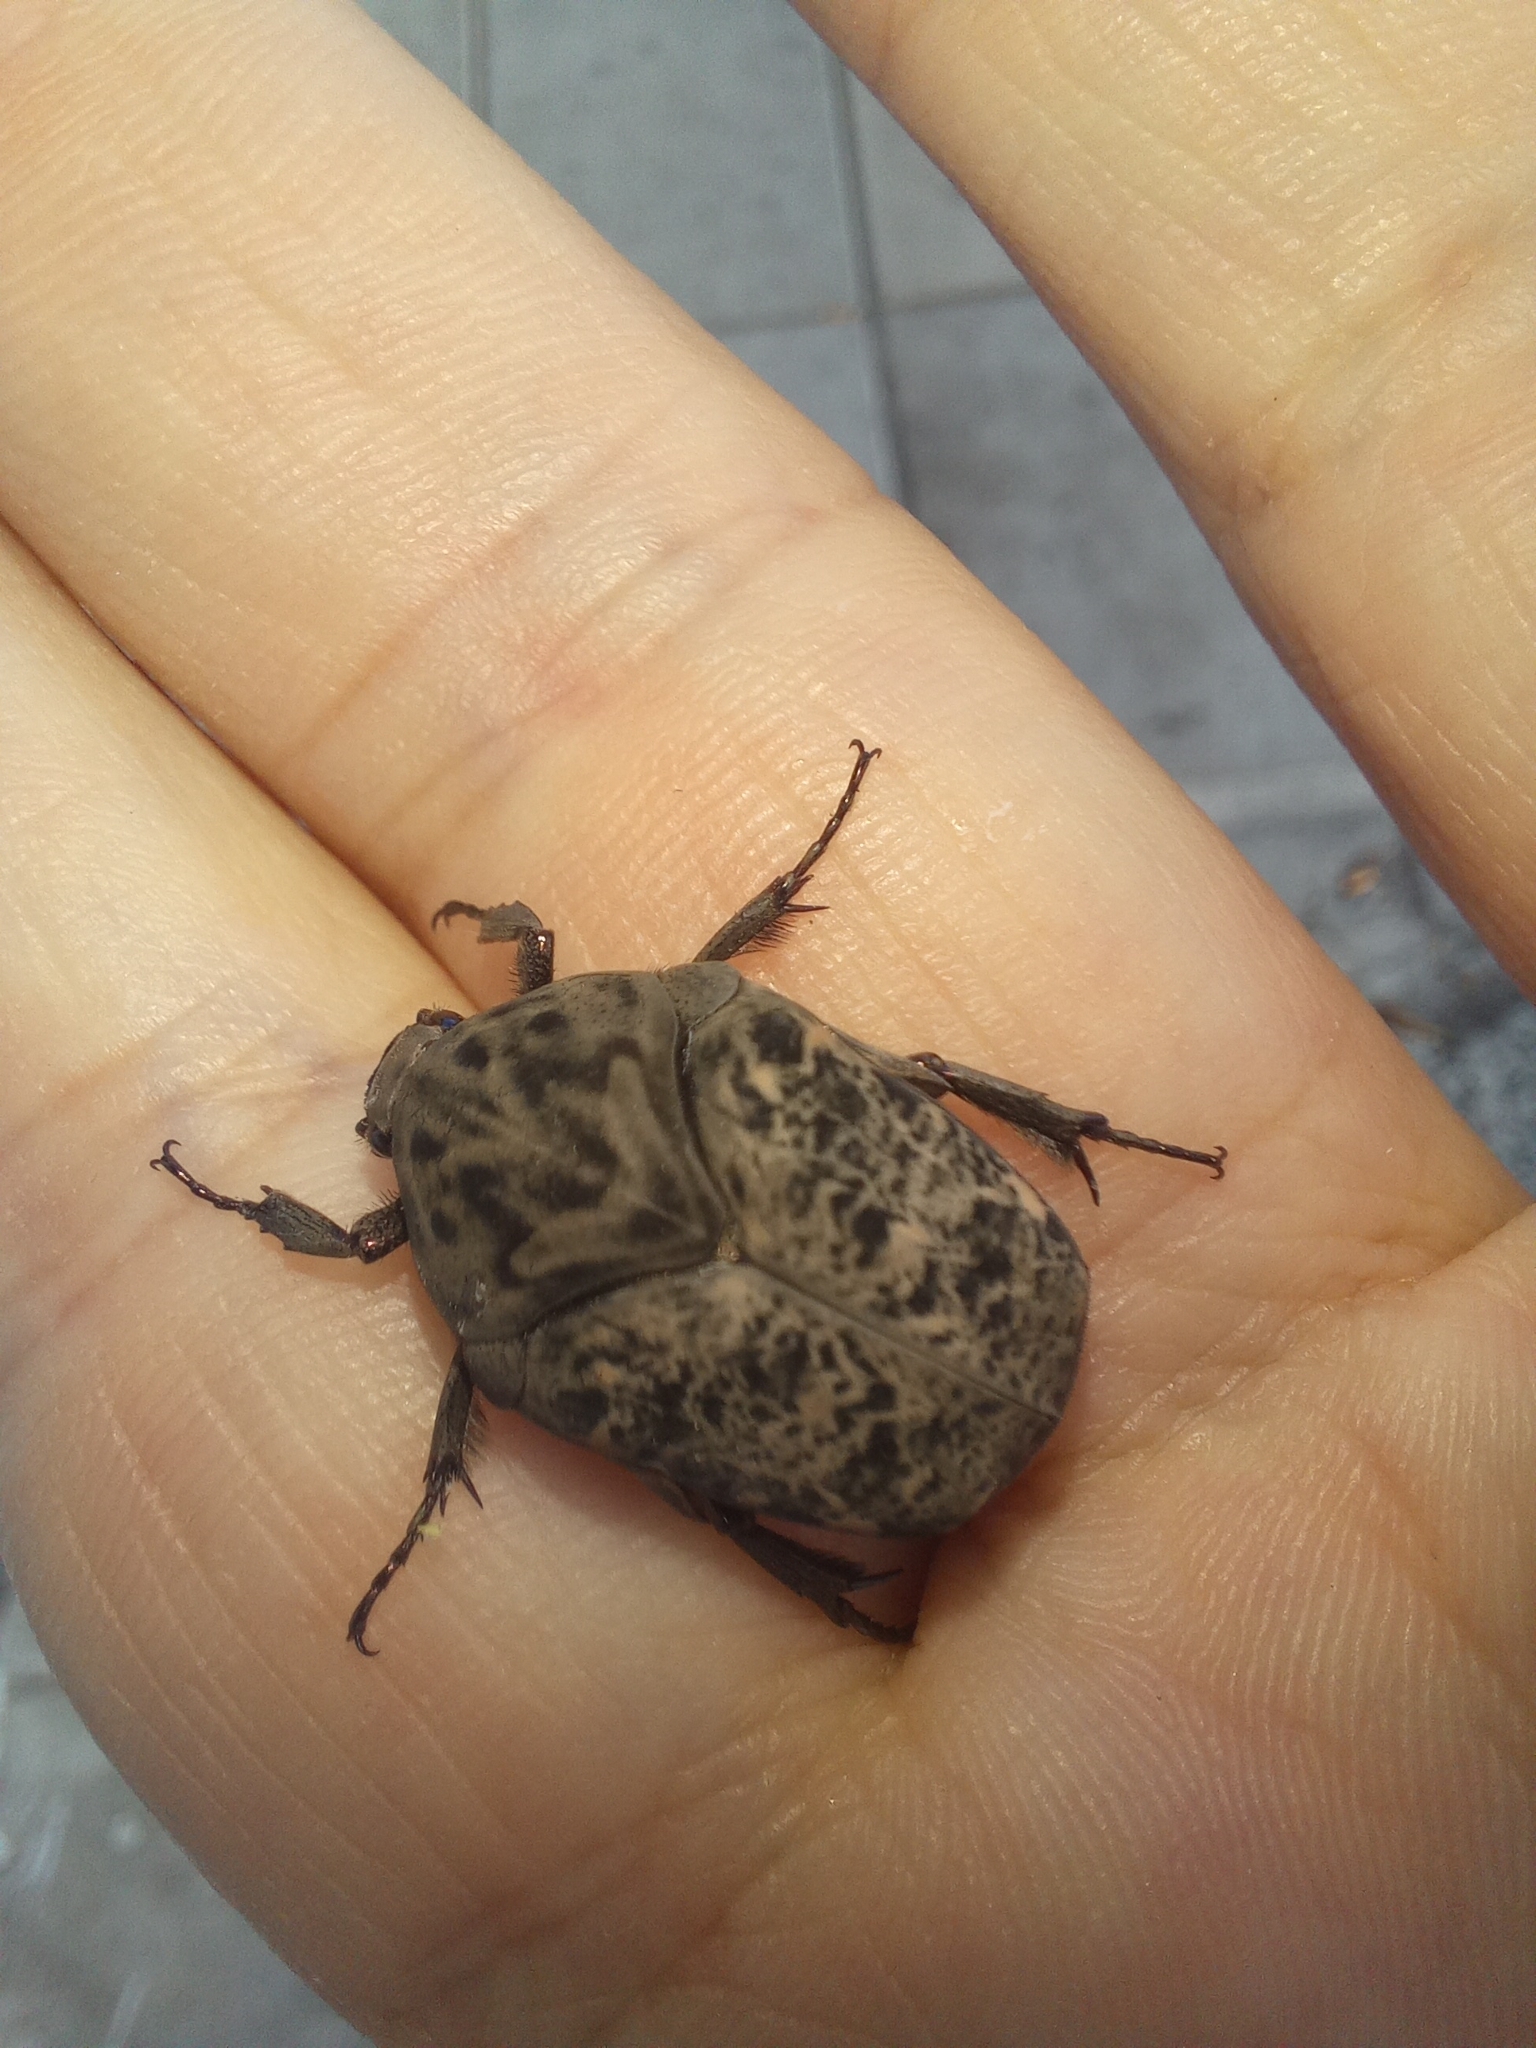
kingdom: Animalia
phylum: Arthropoda
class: Insecta
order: Coleoptera
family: Scarabaeidae
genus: Gymnetis
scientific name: Gymnetis chalcipes
